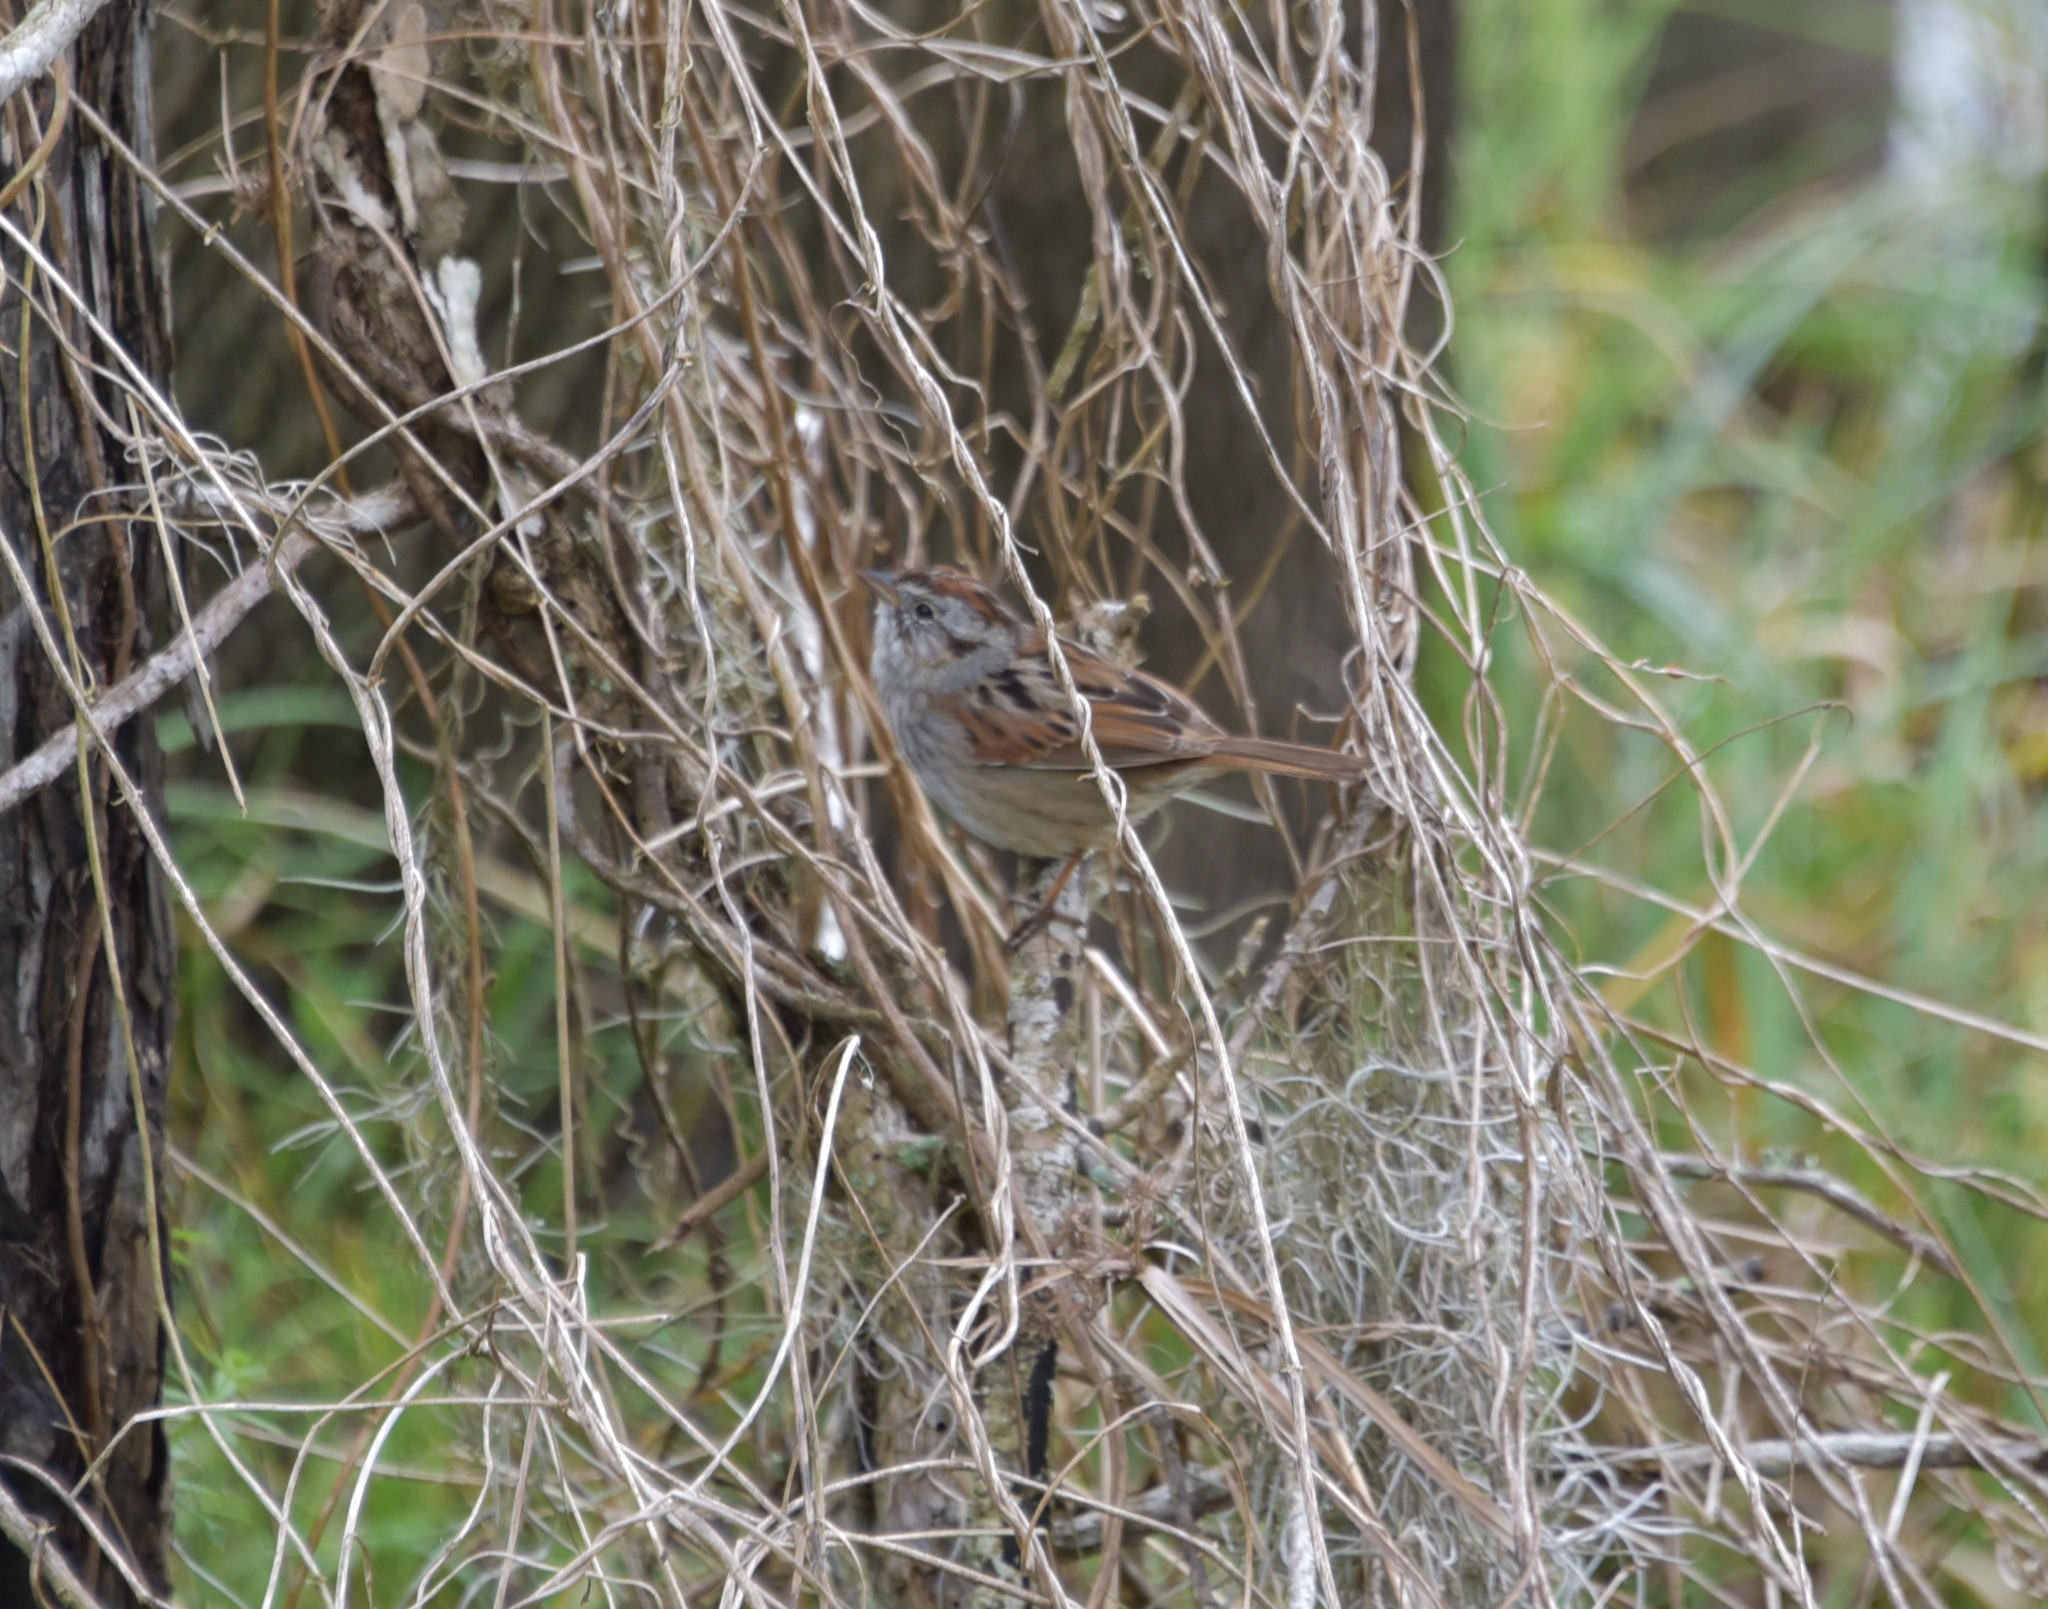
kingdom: Animalia
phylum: Chordata
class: Aves
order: Passeriformes
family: Passerellidae
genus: Melospiza
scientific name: Melospiza georgiana
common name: Swamp sparrow
